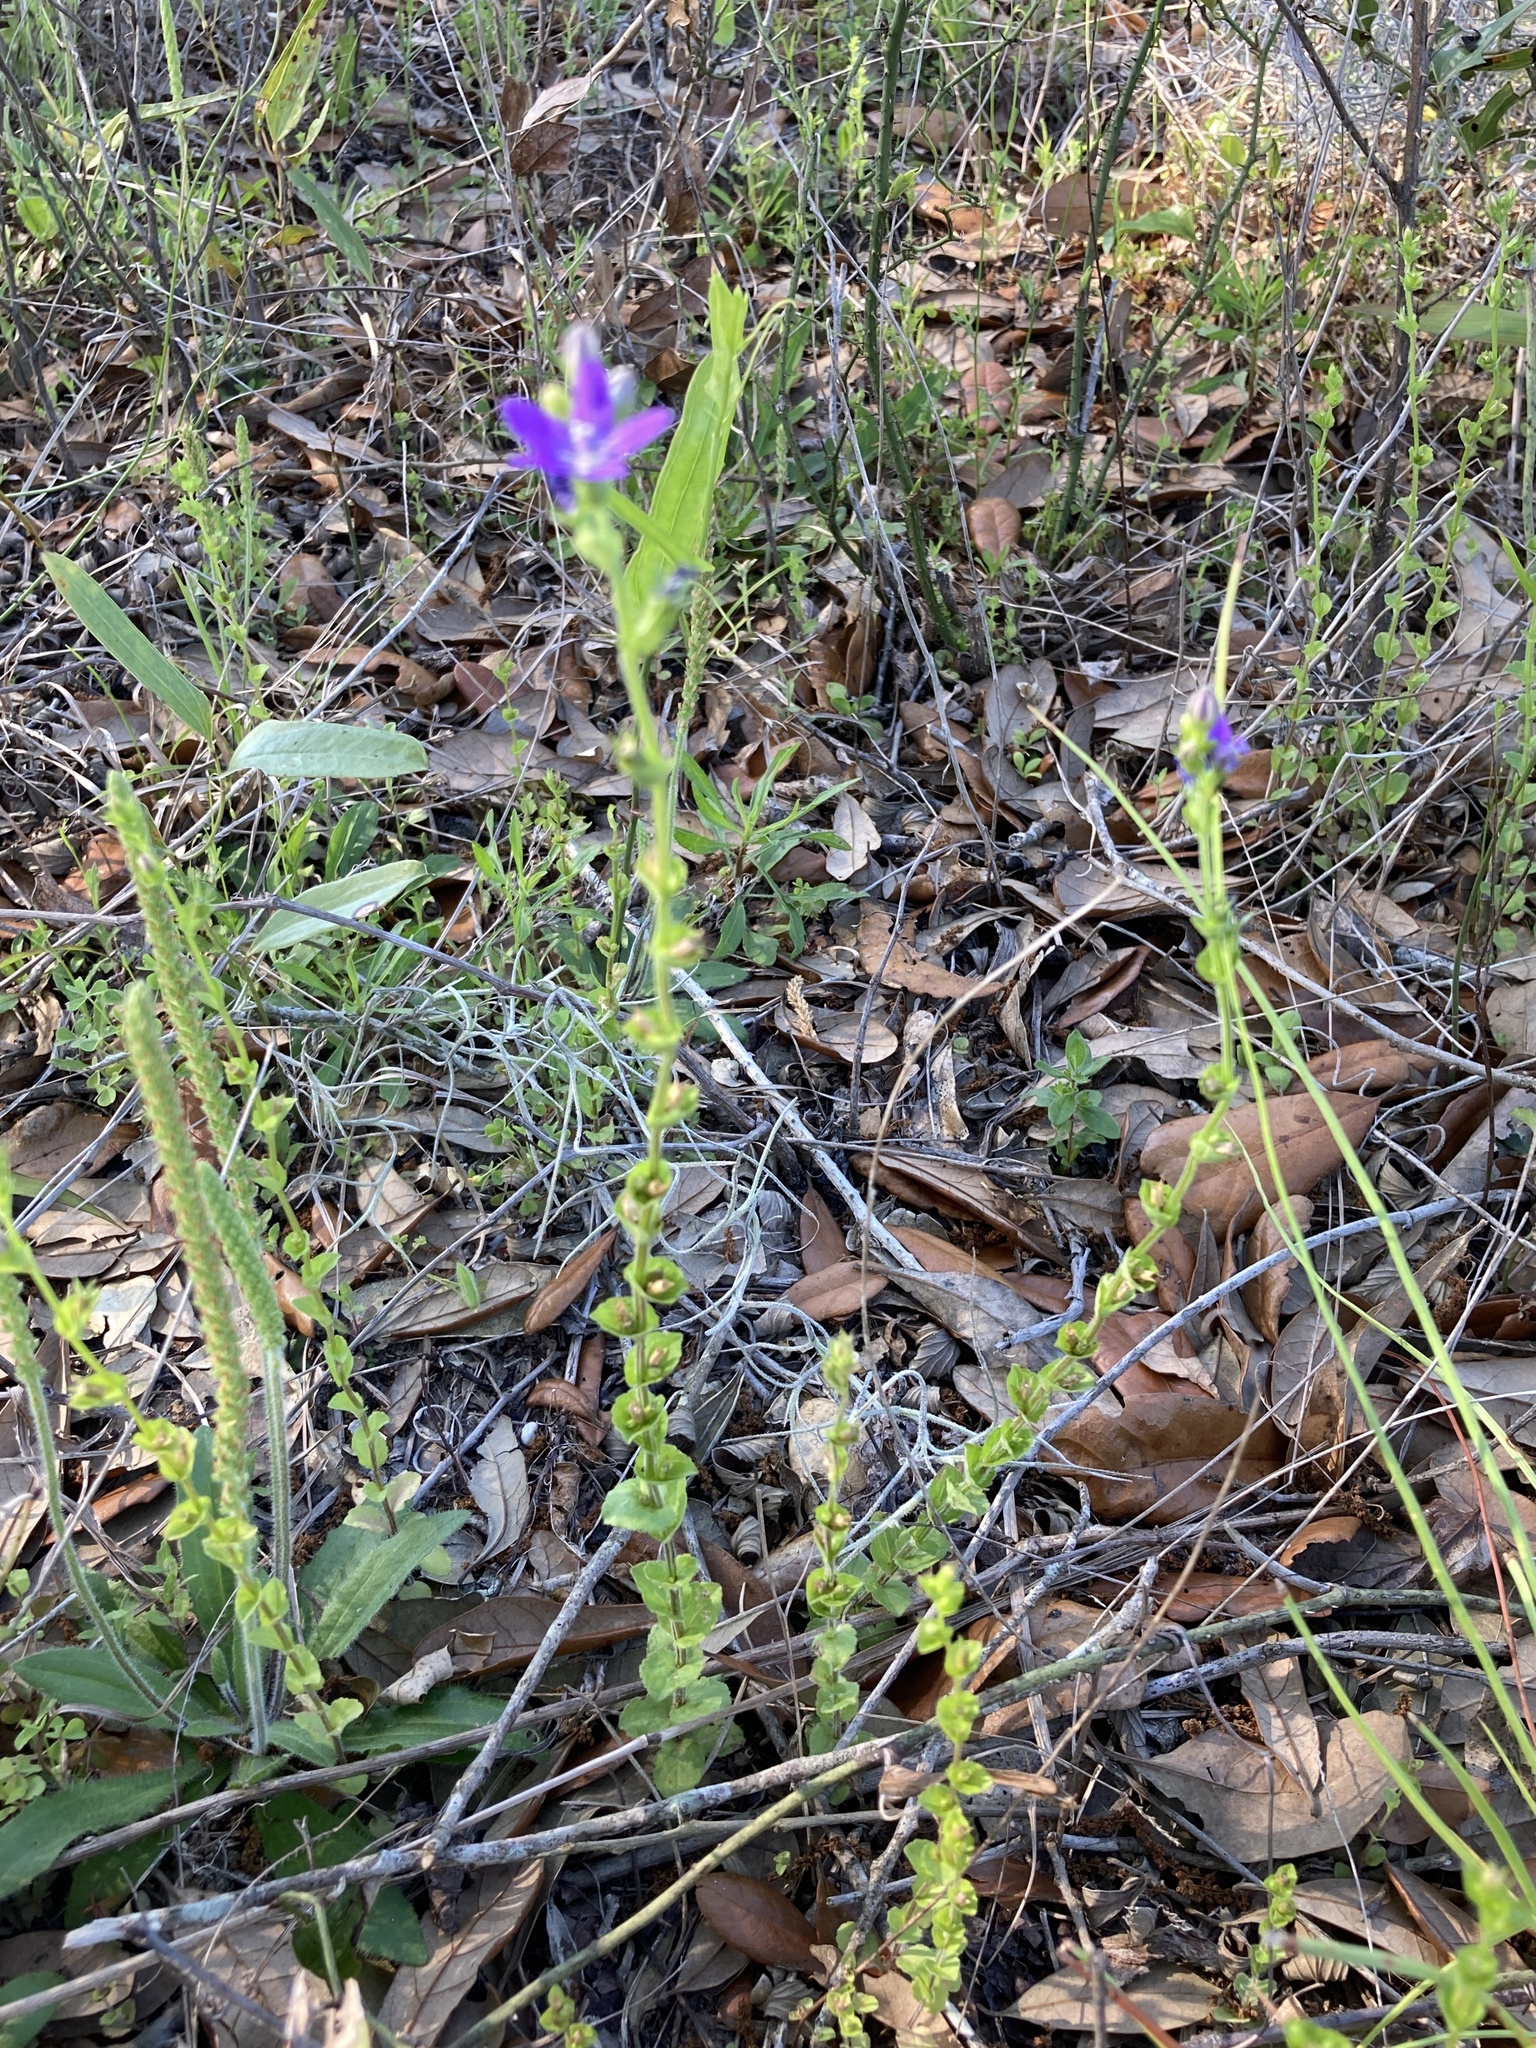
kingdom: Plantae
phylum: Tracheophyta
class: Magnoliopsida
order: Asterales
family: Campanulaceae
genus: Triodanis
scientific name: Triodanis perfoliata
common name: Clasping venus' looking-glass
